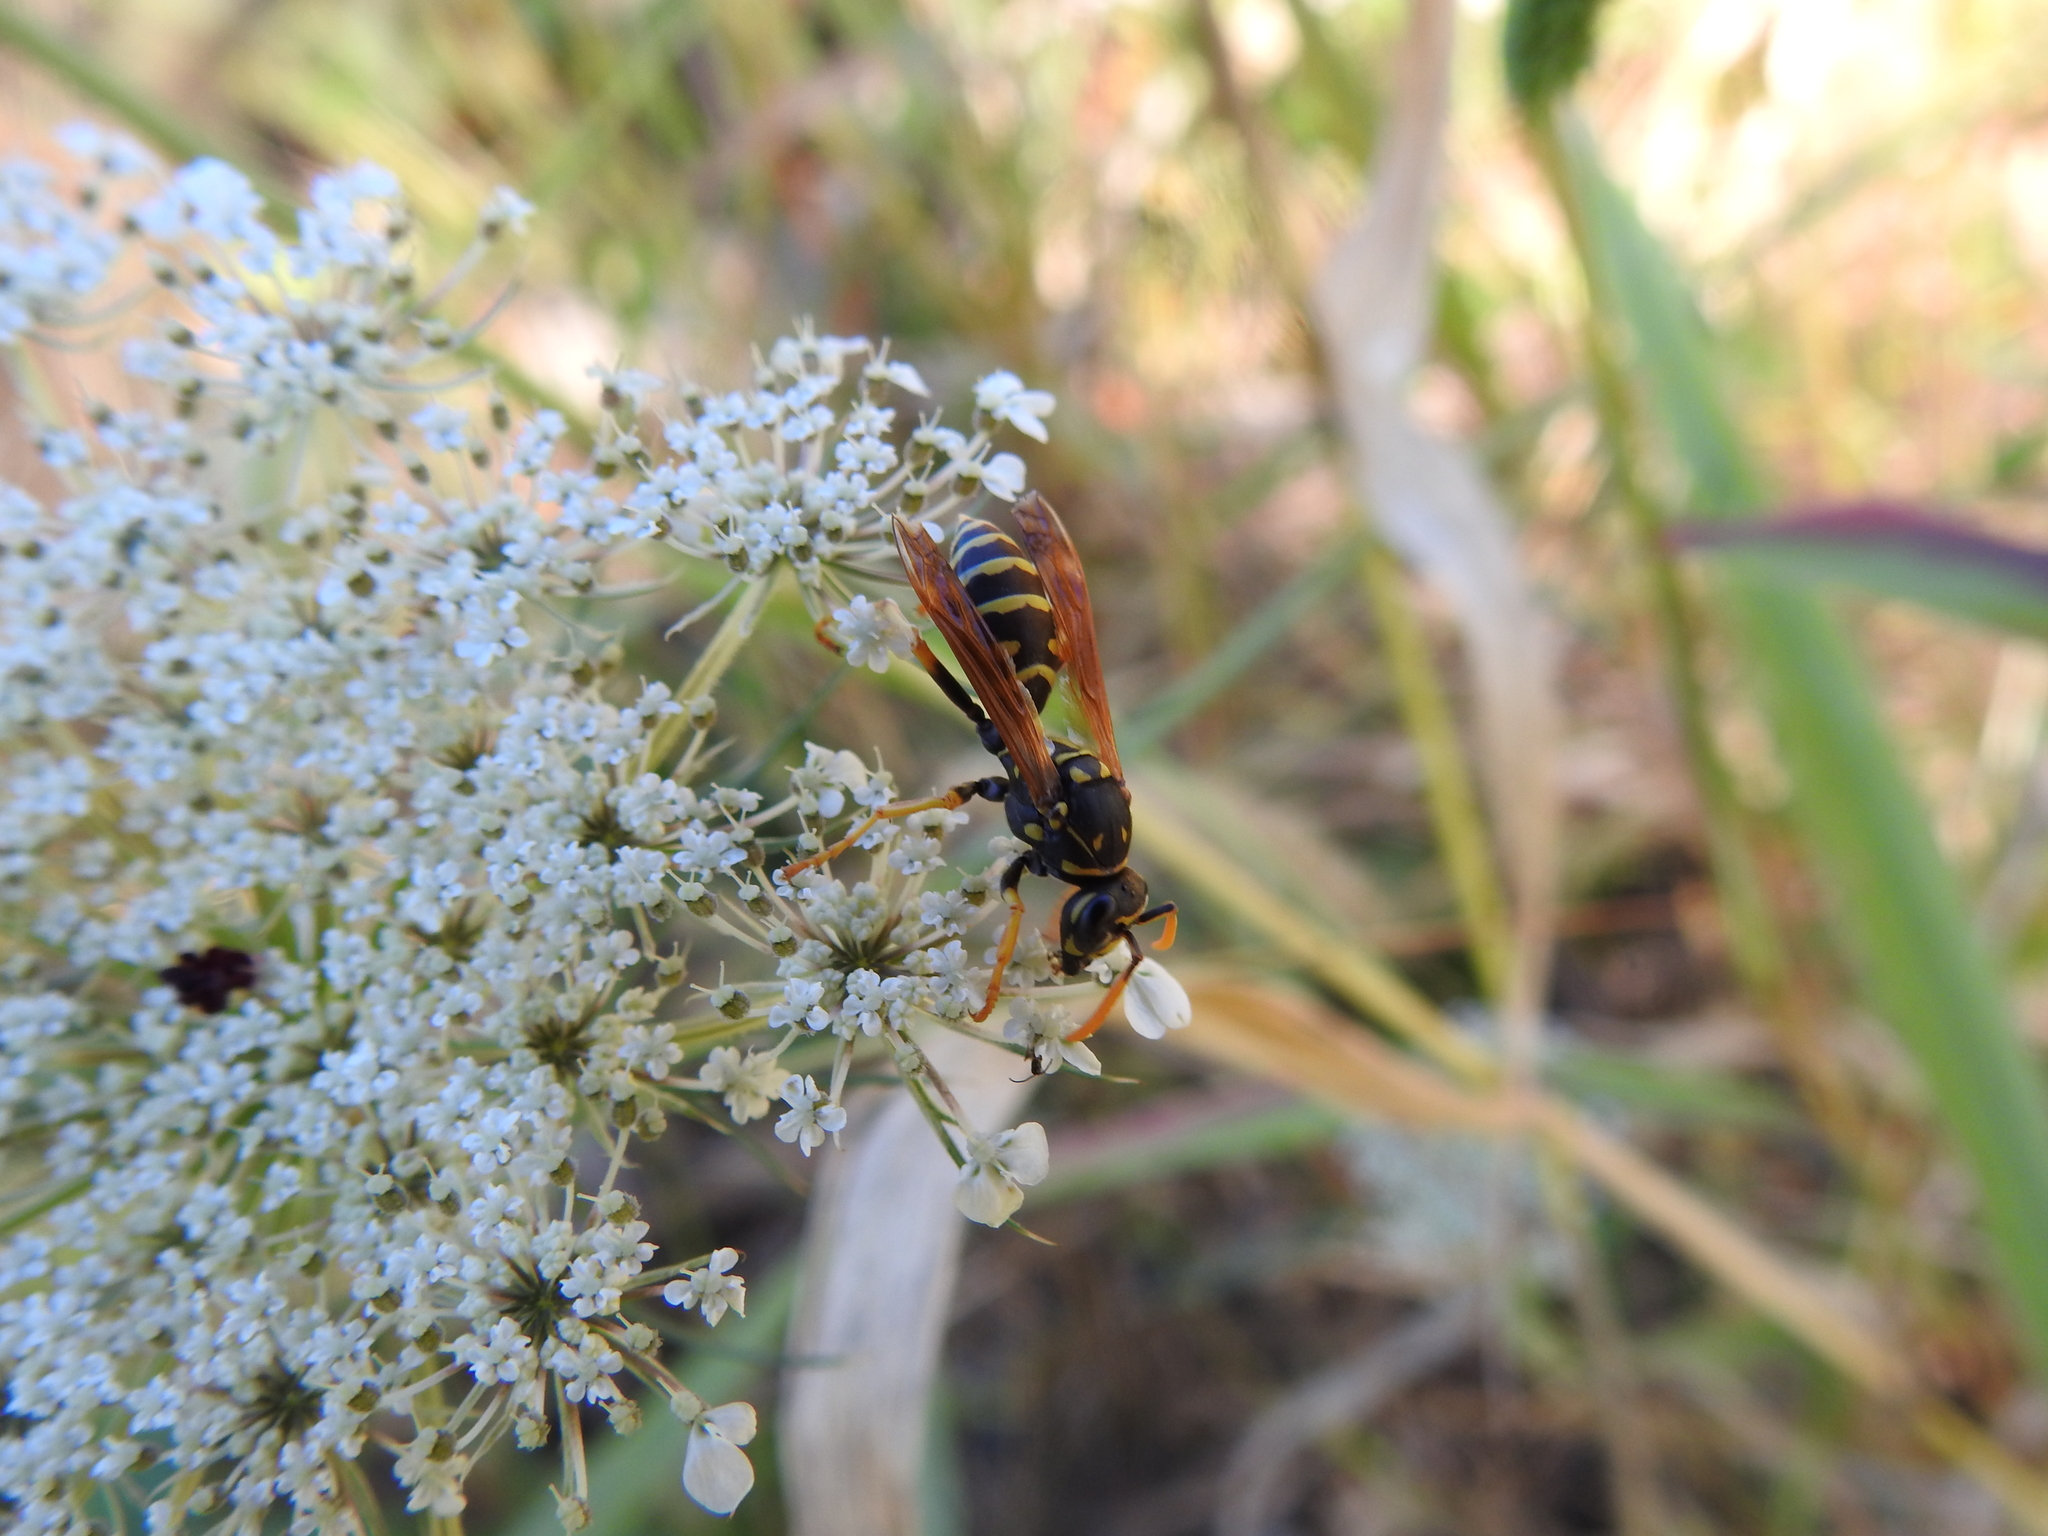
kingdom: Animalia
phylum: Arthropoda
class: Insecta
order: Hymenoptera
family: Eumenidae
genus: Polistes
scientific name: Polistes dominula
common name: Paper wasp
